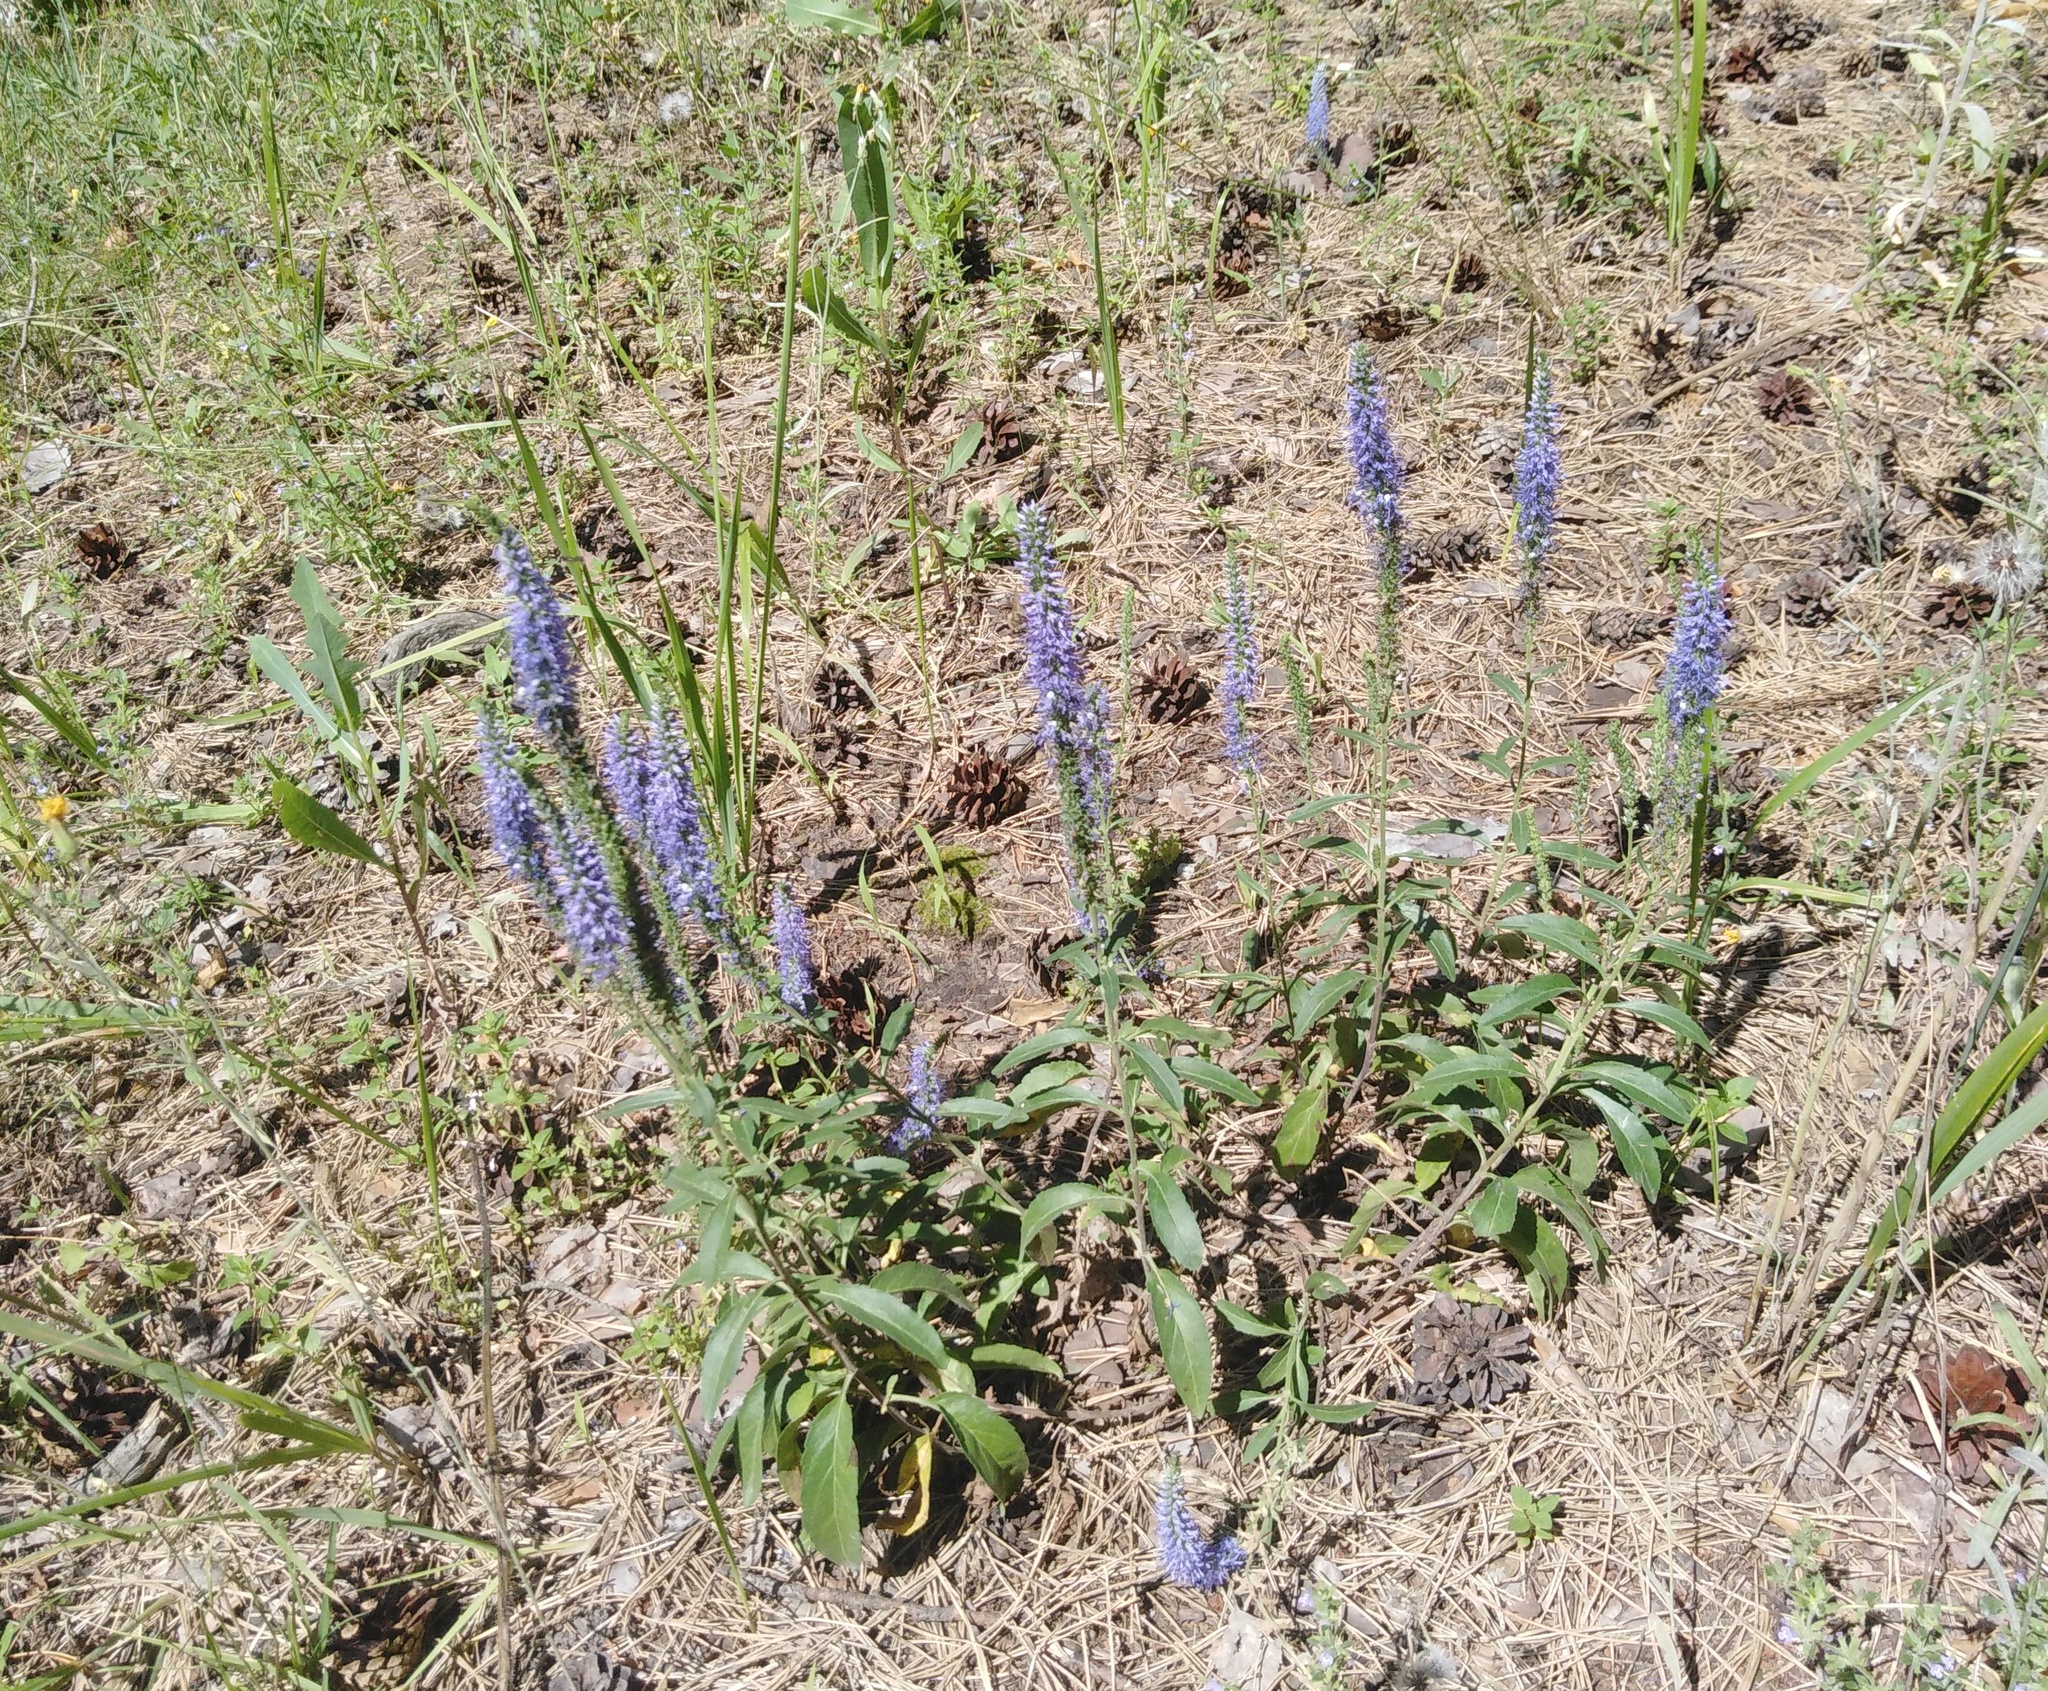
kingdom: Plantae
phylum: Tracheophyta
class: Magnoliopsida
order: Lamiales
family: Plantaginaceae
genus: Veronica
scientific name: Veronica spicata
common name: Spiked speedwell
